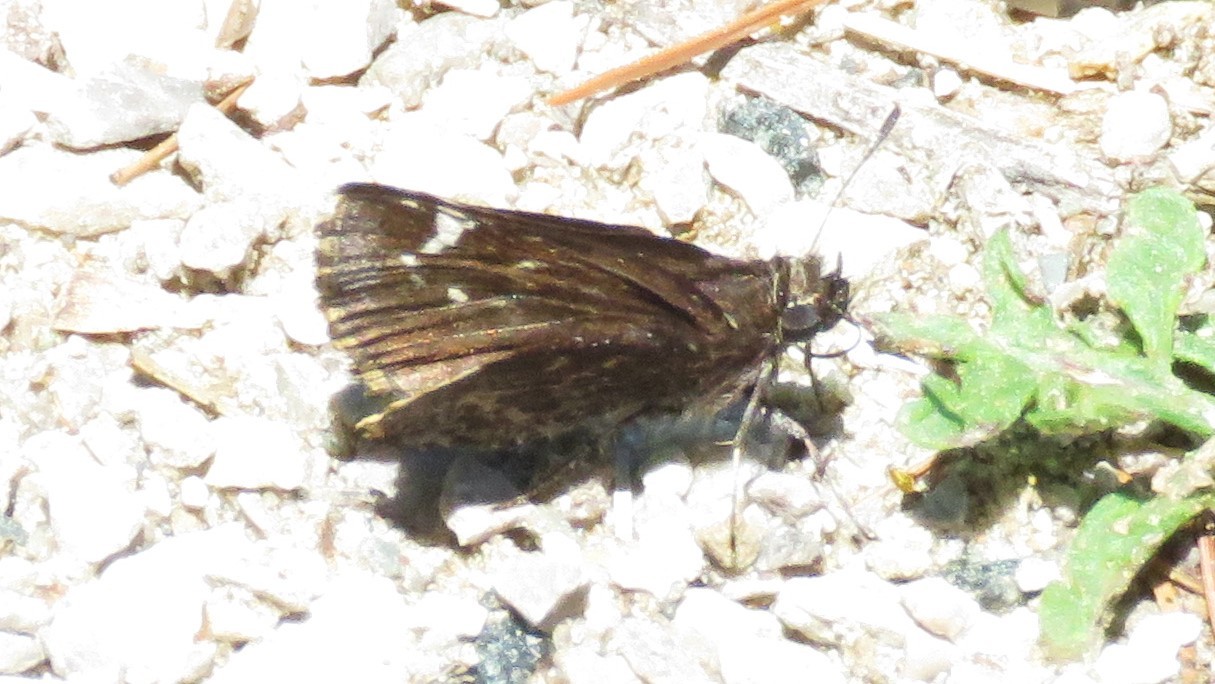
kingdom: Animalia
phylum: Arthropoda
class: Insecta
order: Lepidoptera
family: Hesperiidae
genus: Mastor
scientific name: Mastor vialis
